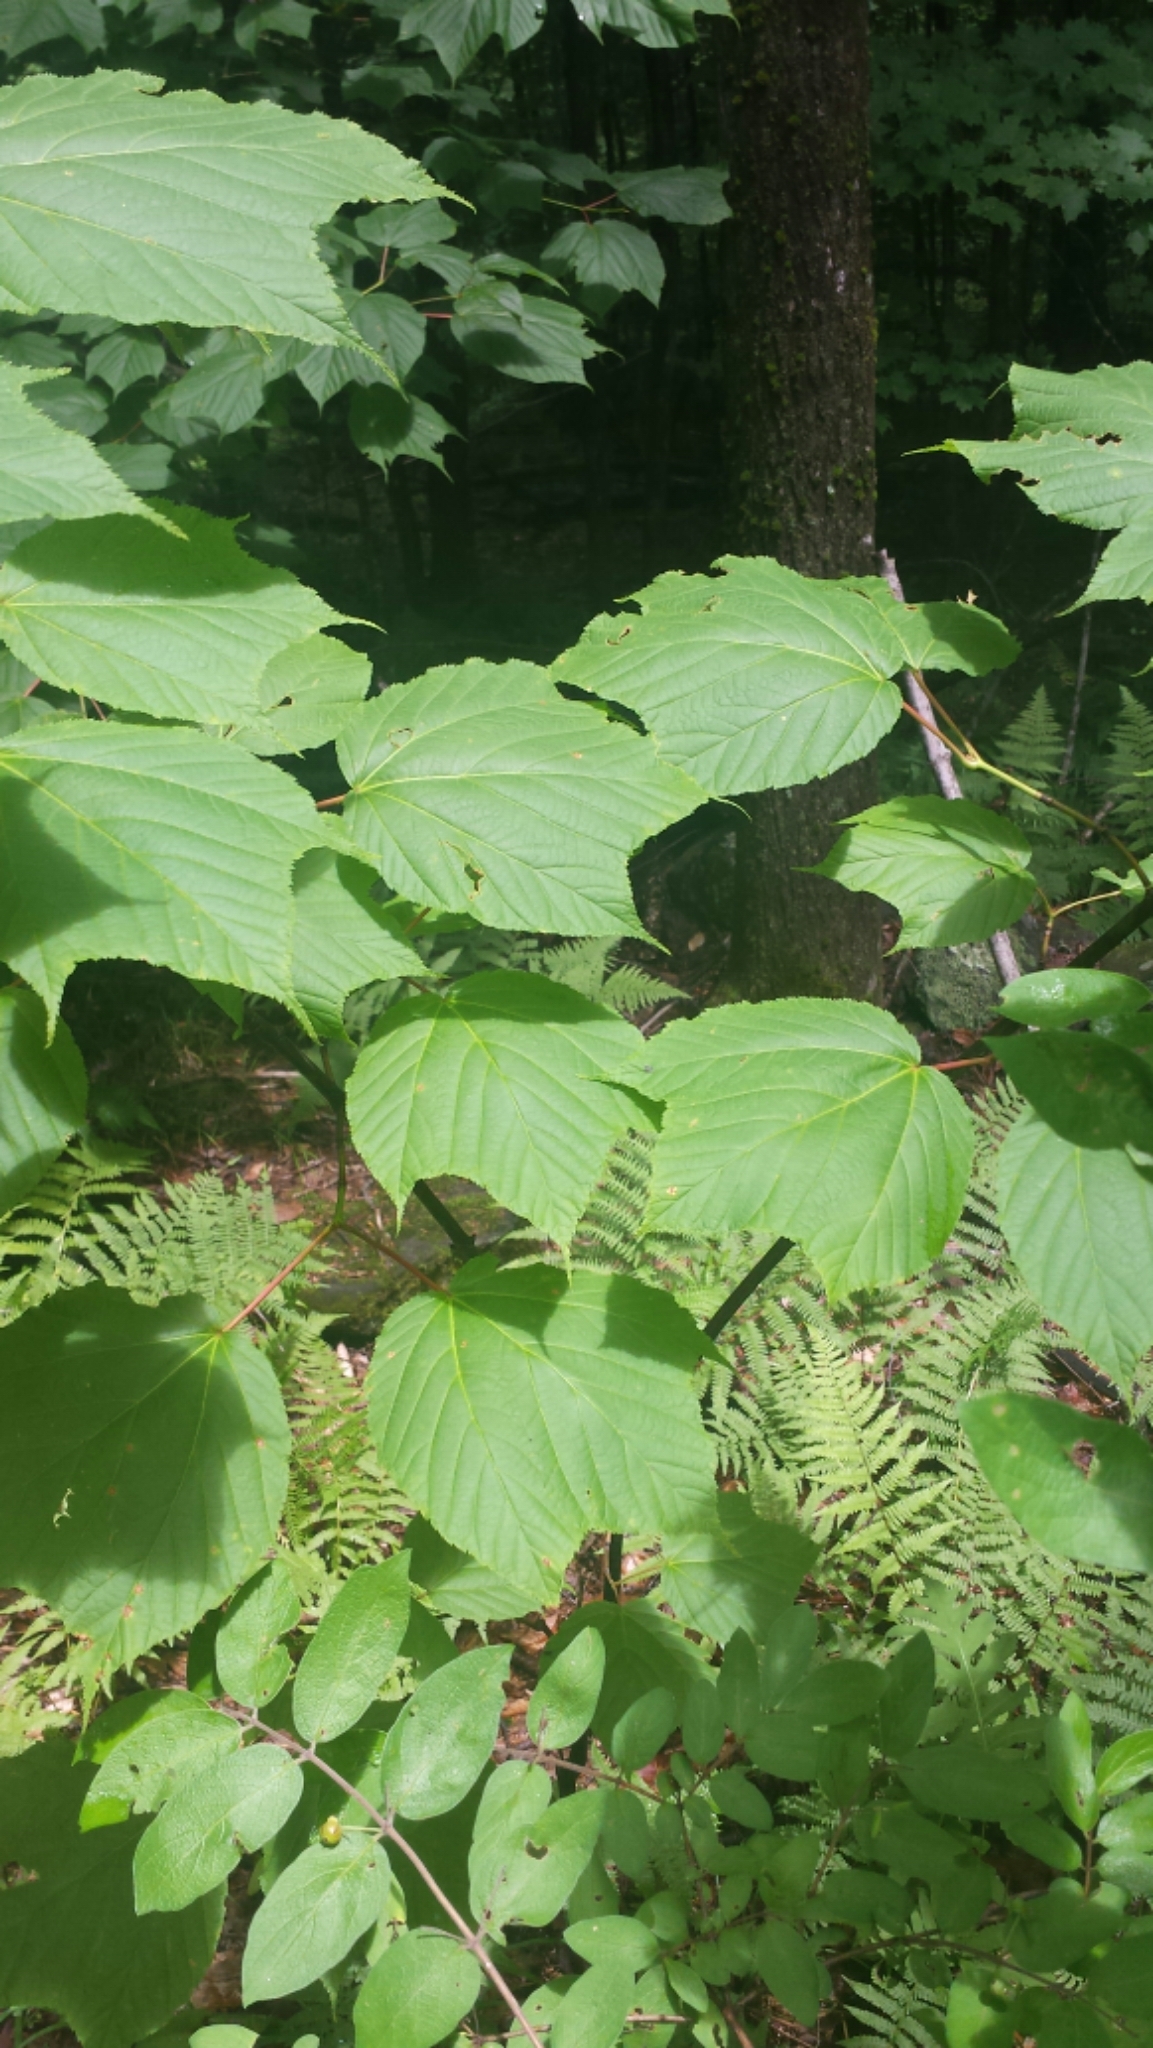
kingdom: Plantae
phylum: Tracheophyta
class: Magnoliopsida
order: Sapindales
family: Sapindaceae
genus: Acer
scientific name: Acer pensylvanicum
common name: Moosewood
